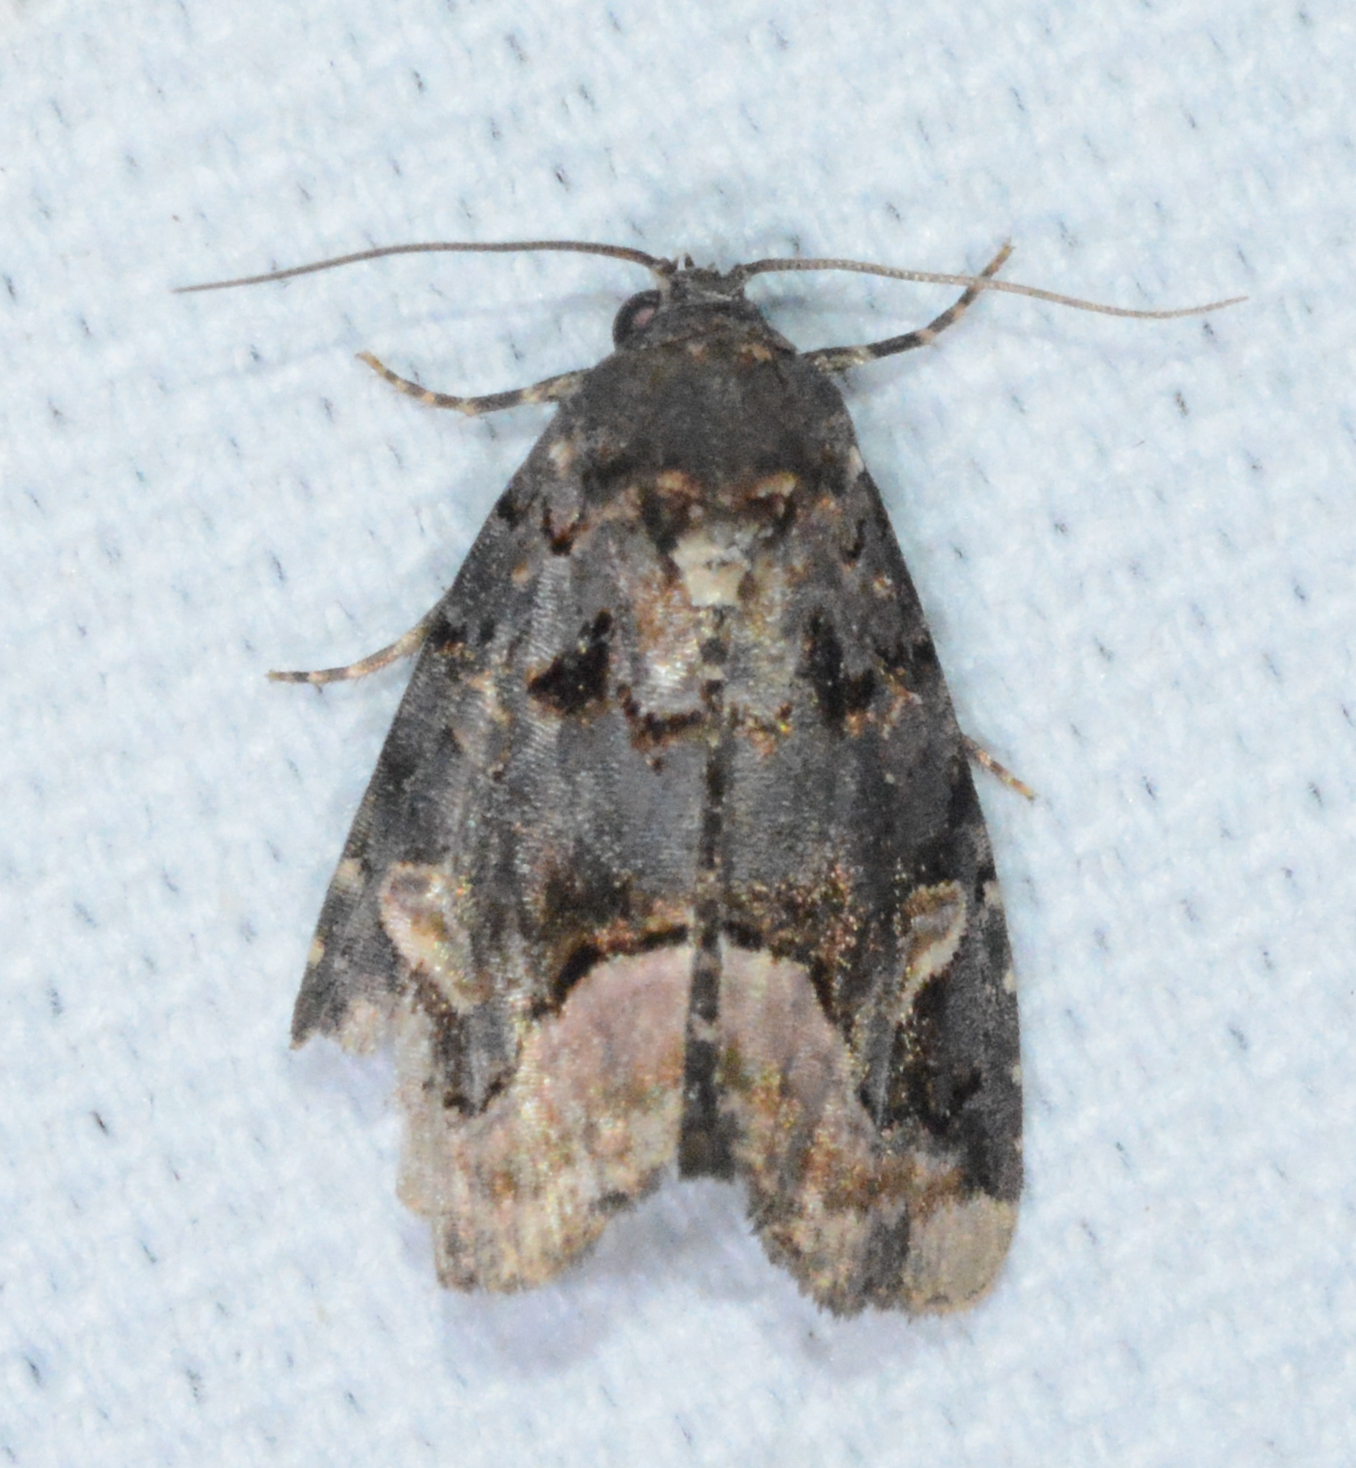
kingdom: Animalia
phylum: Arthropoda
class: Insecta
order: Lepidoptera
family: Noctuidae
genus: Homophoberia
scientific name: Homophoberia apicosa
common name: Black wedge-spot
